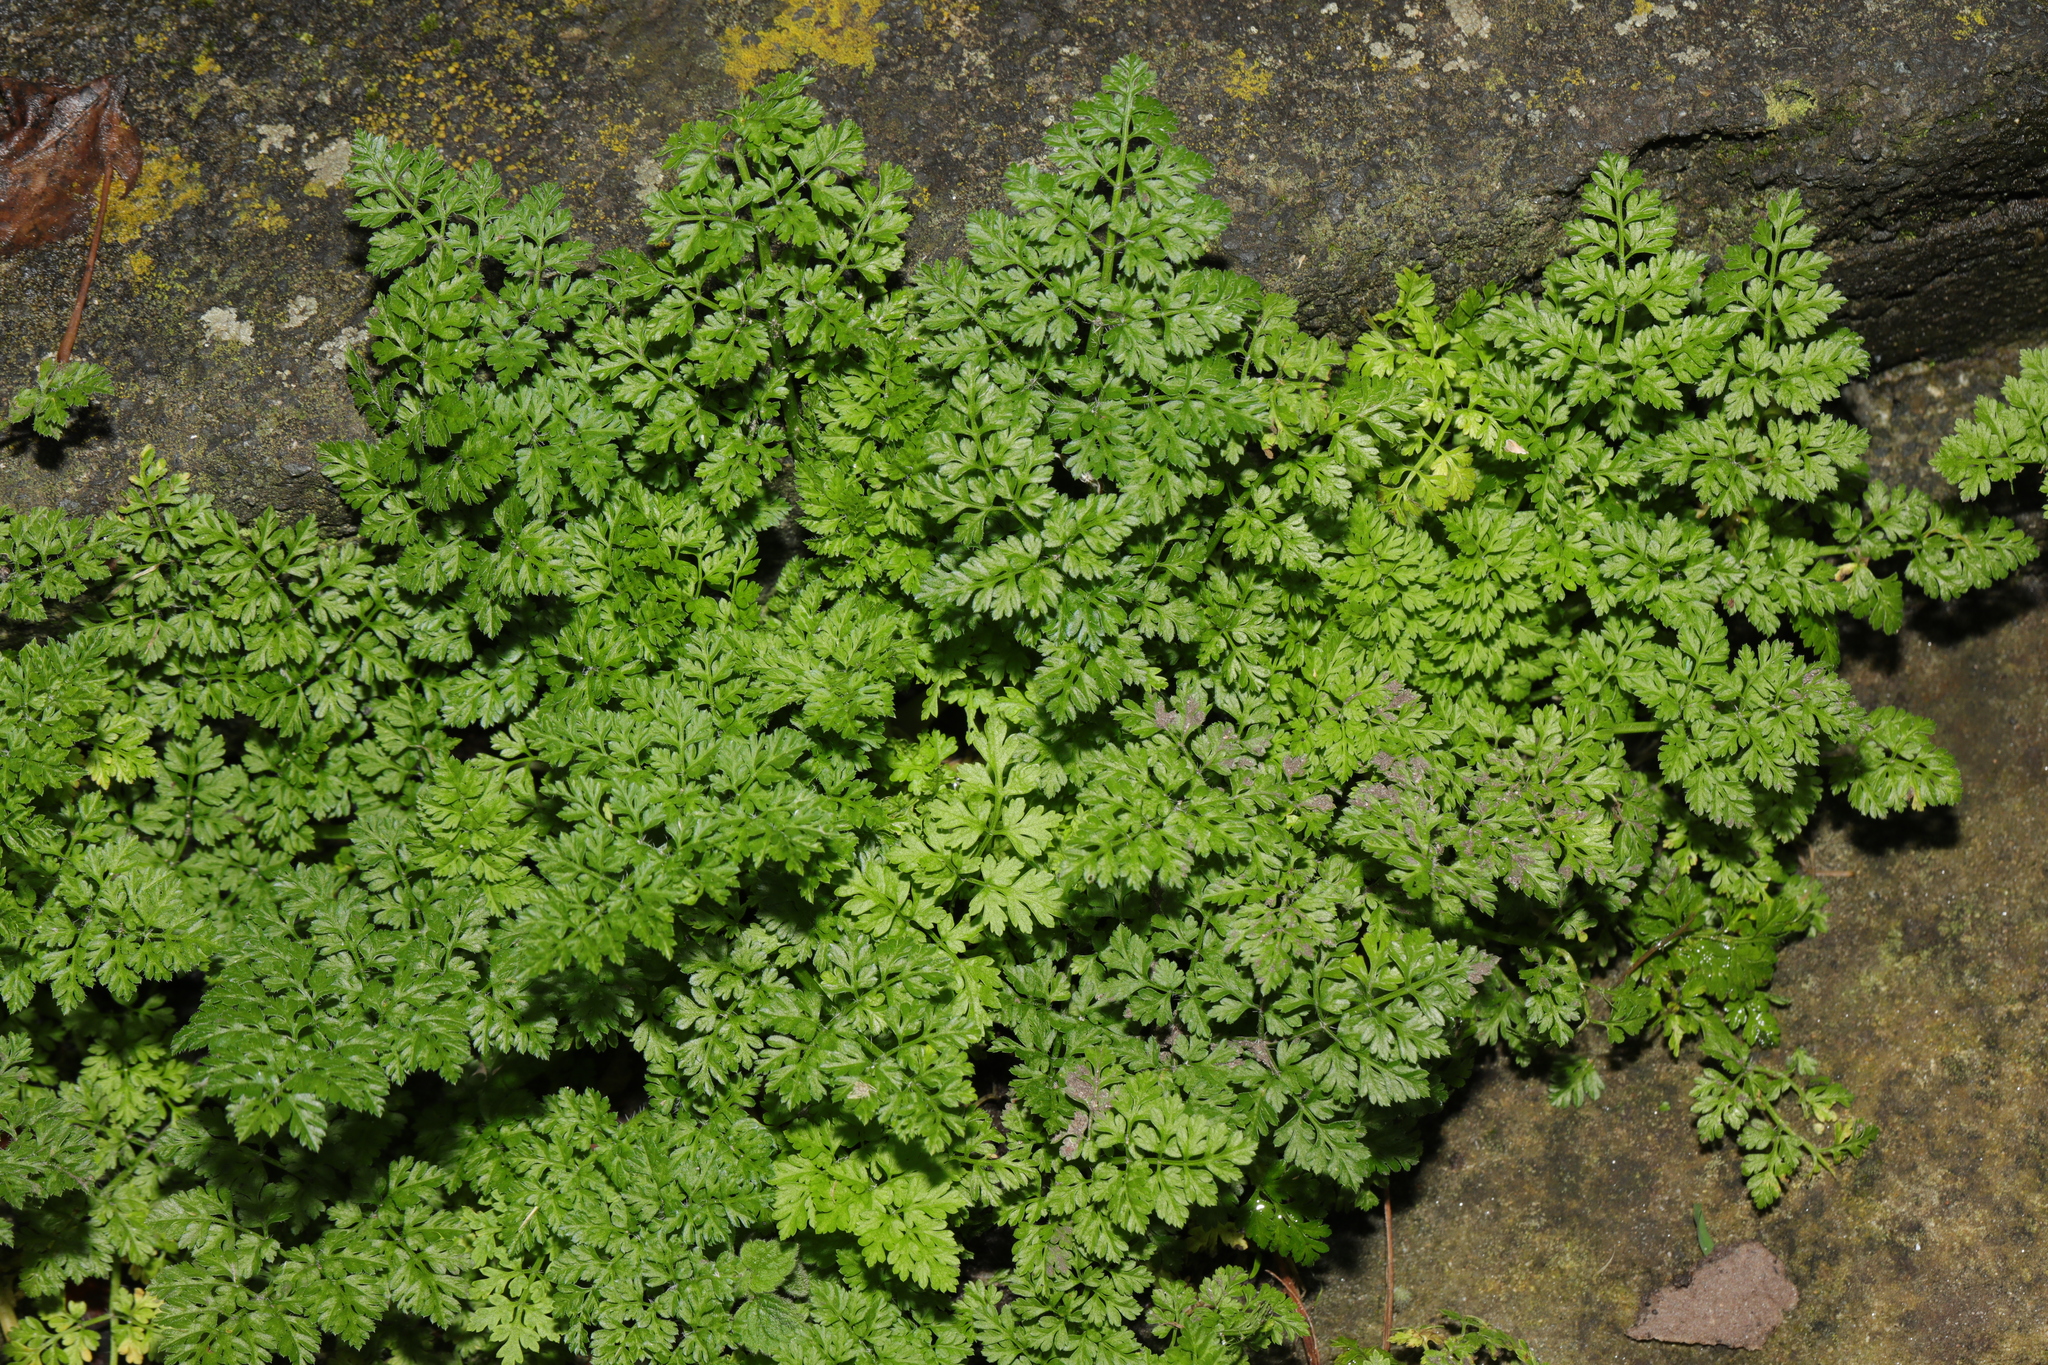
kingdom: Plantae
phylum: Tracheophyta
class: Magnoliopsida
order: Apiales
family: Apiaceae
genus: Anthriscus
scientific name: Anthriscus sylvestris
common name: Cow parsley
